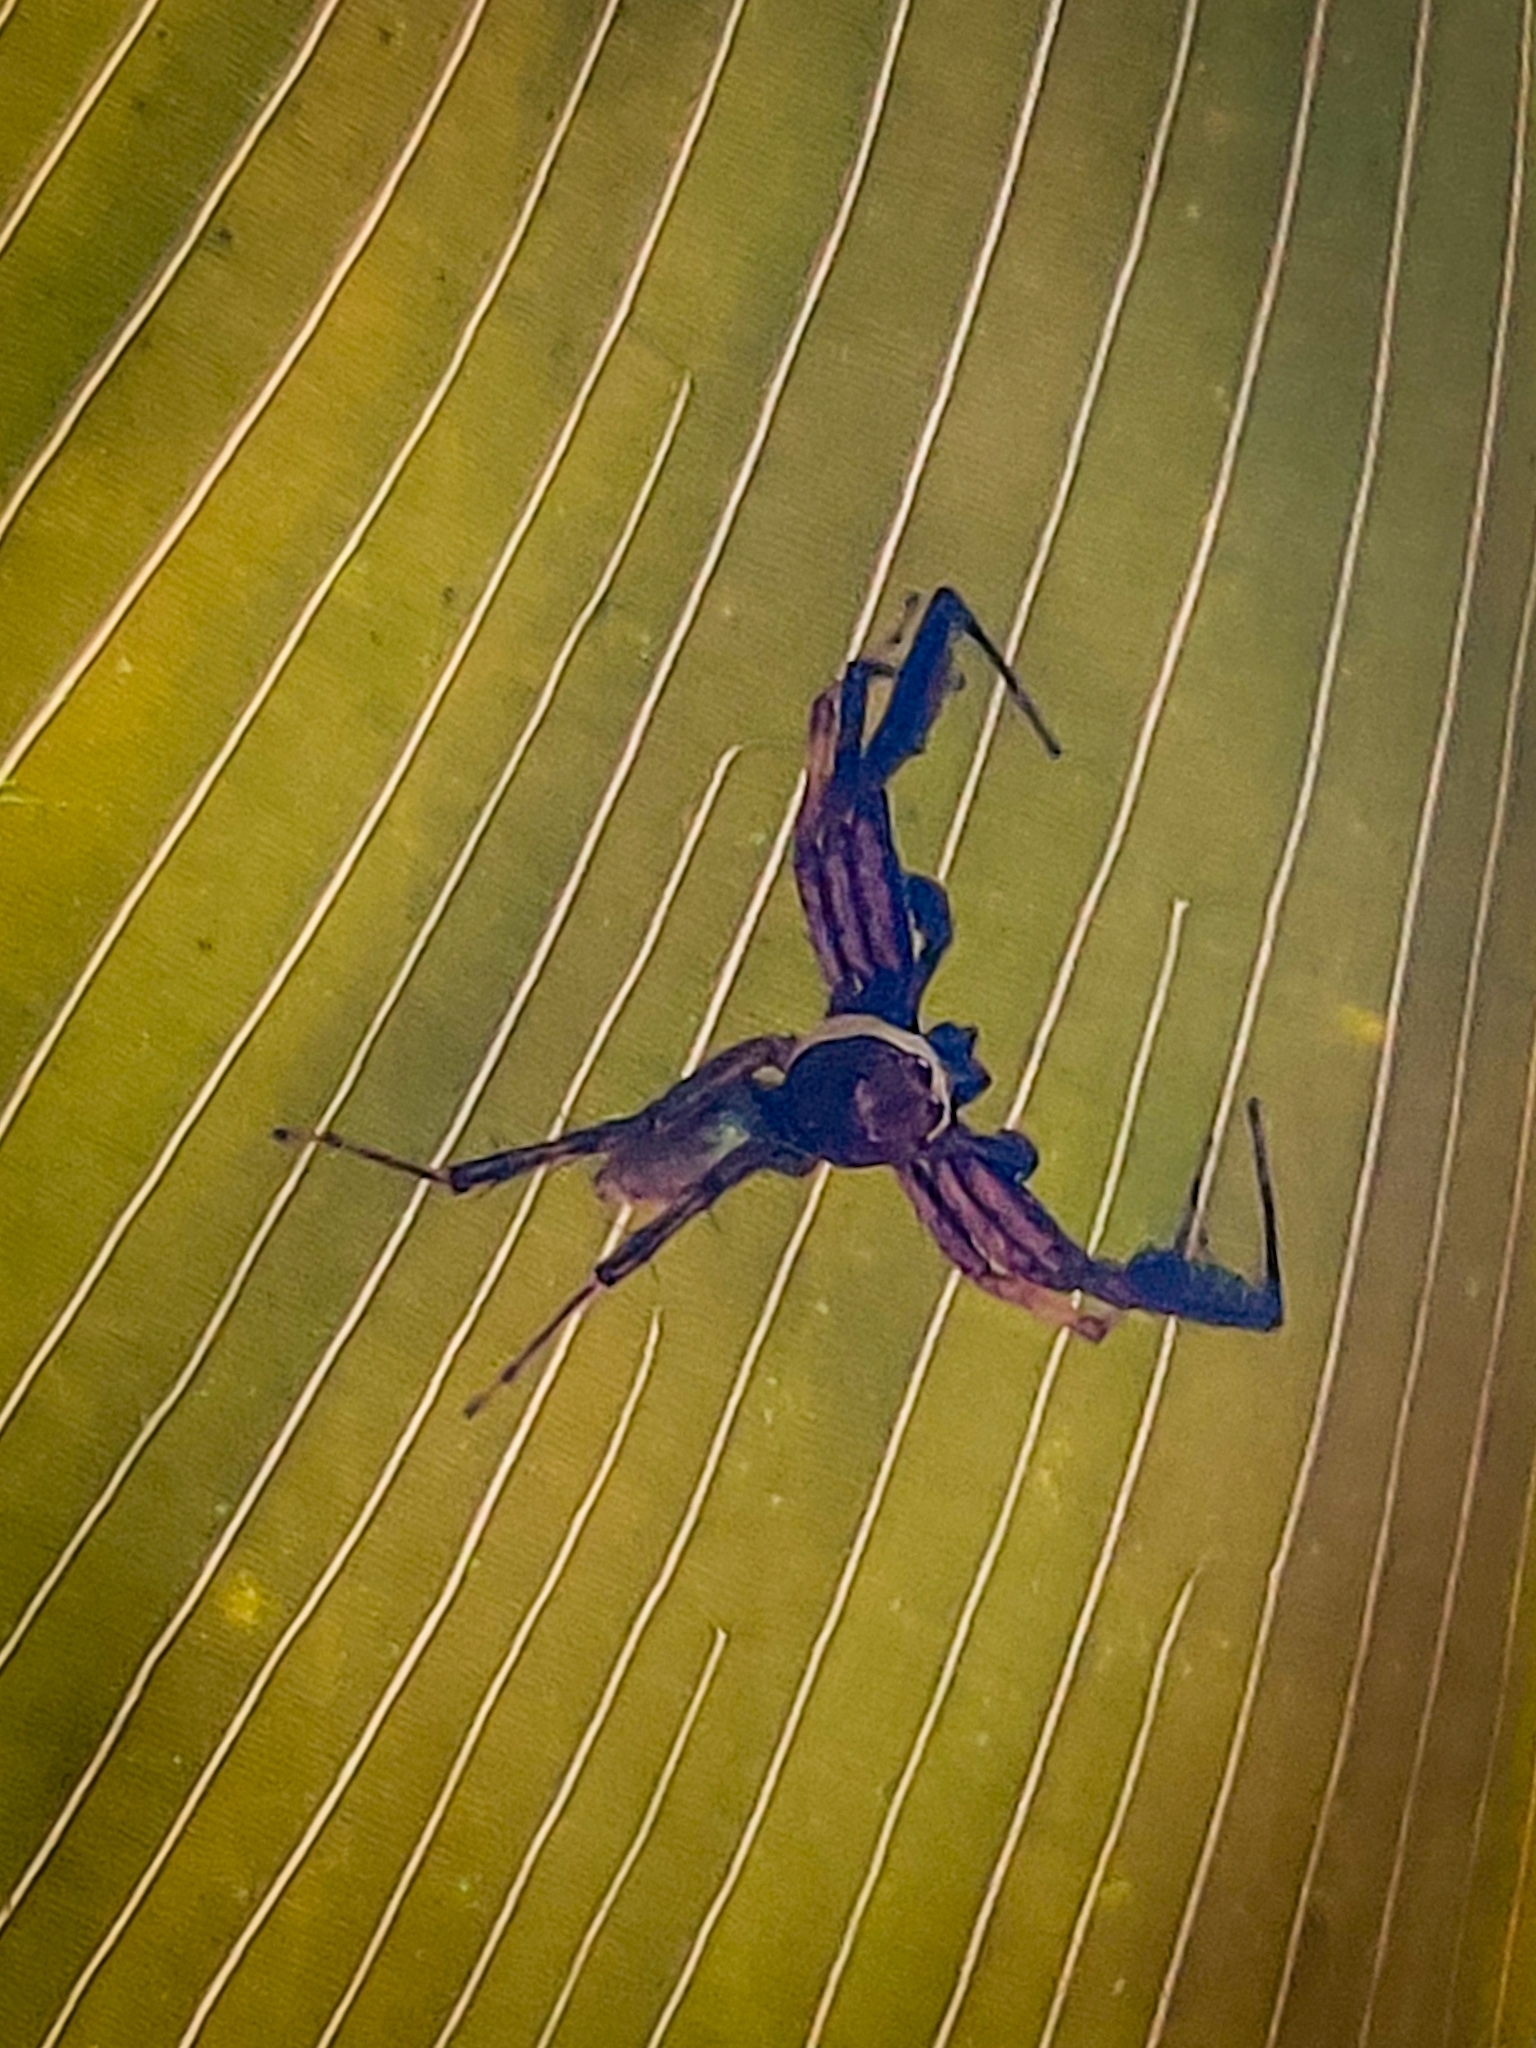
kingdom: Animalia
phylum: Arthropoda
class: Arachnida
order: Araneae
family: Salticidae
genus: Brettus
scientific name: Brettus cingulatus
